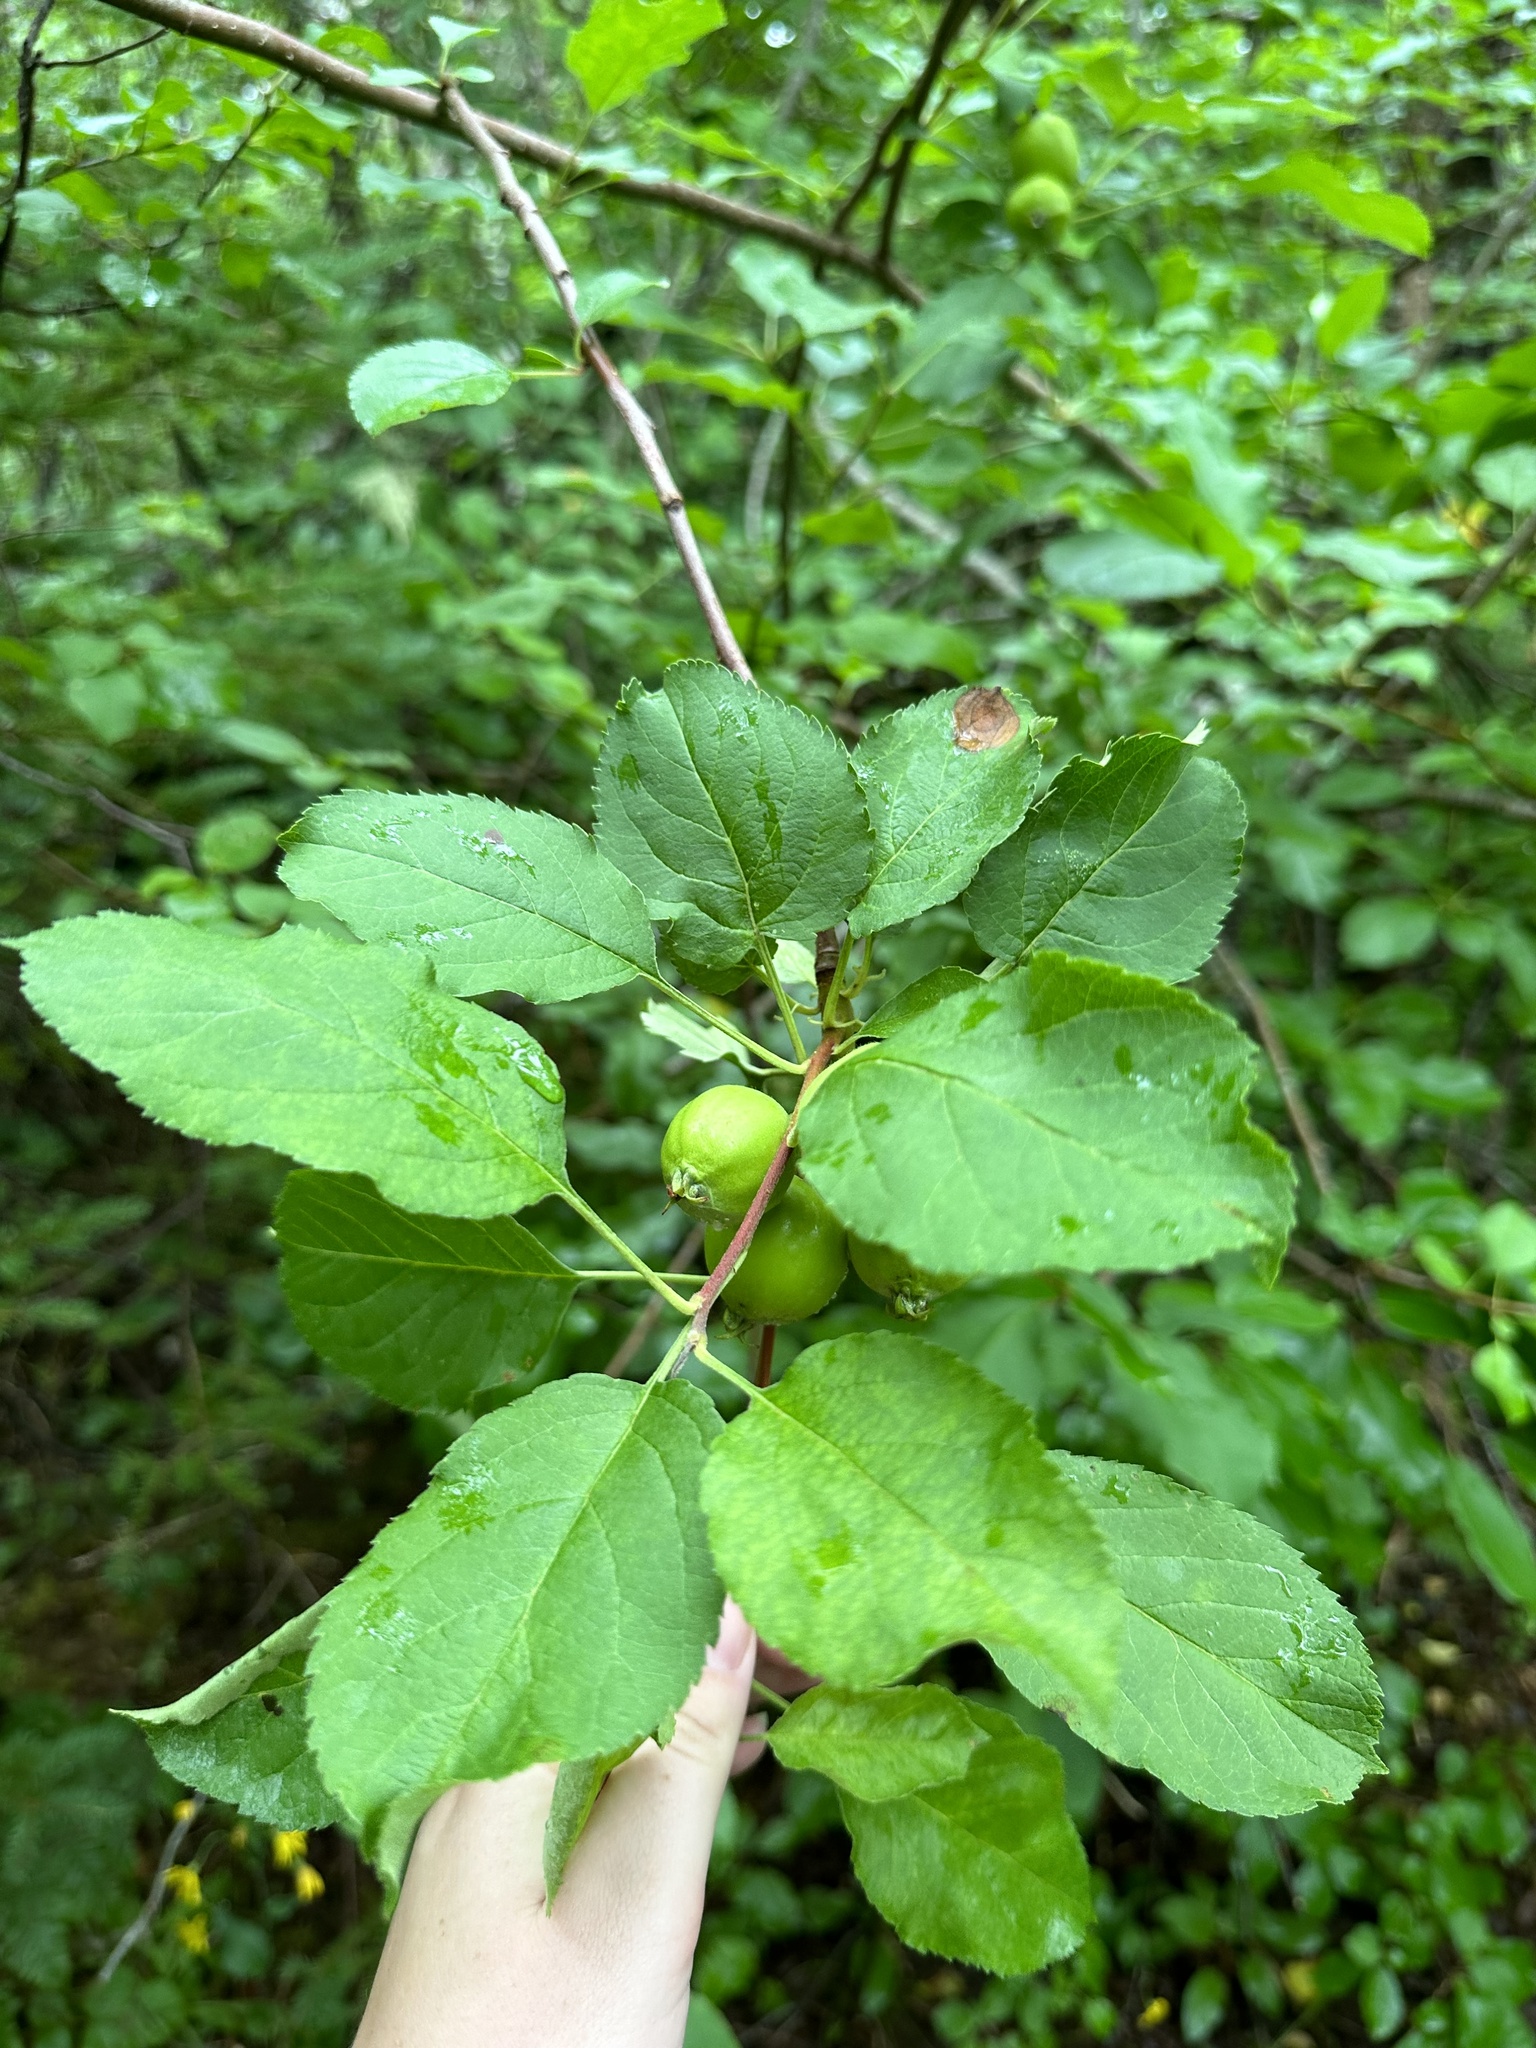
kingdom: Plantae
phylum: Tracheophyta
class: Magnoliopsida
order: Rosales
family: Rosaceae
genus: Malus
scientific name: Malus domestica
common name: Apple
